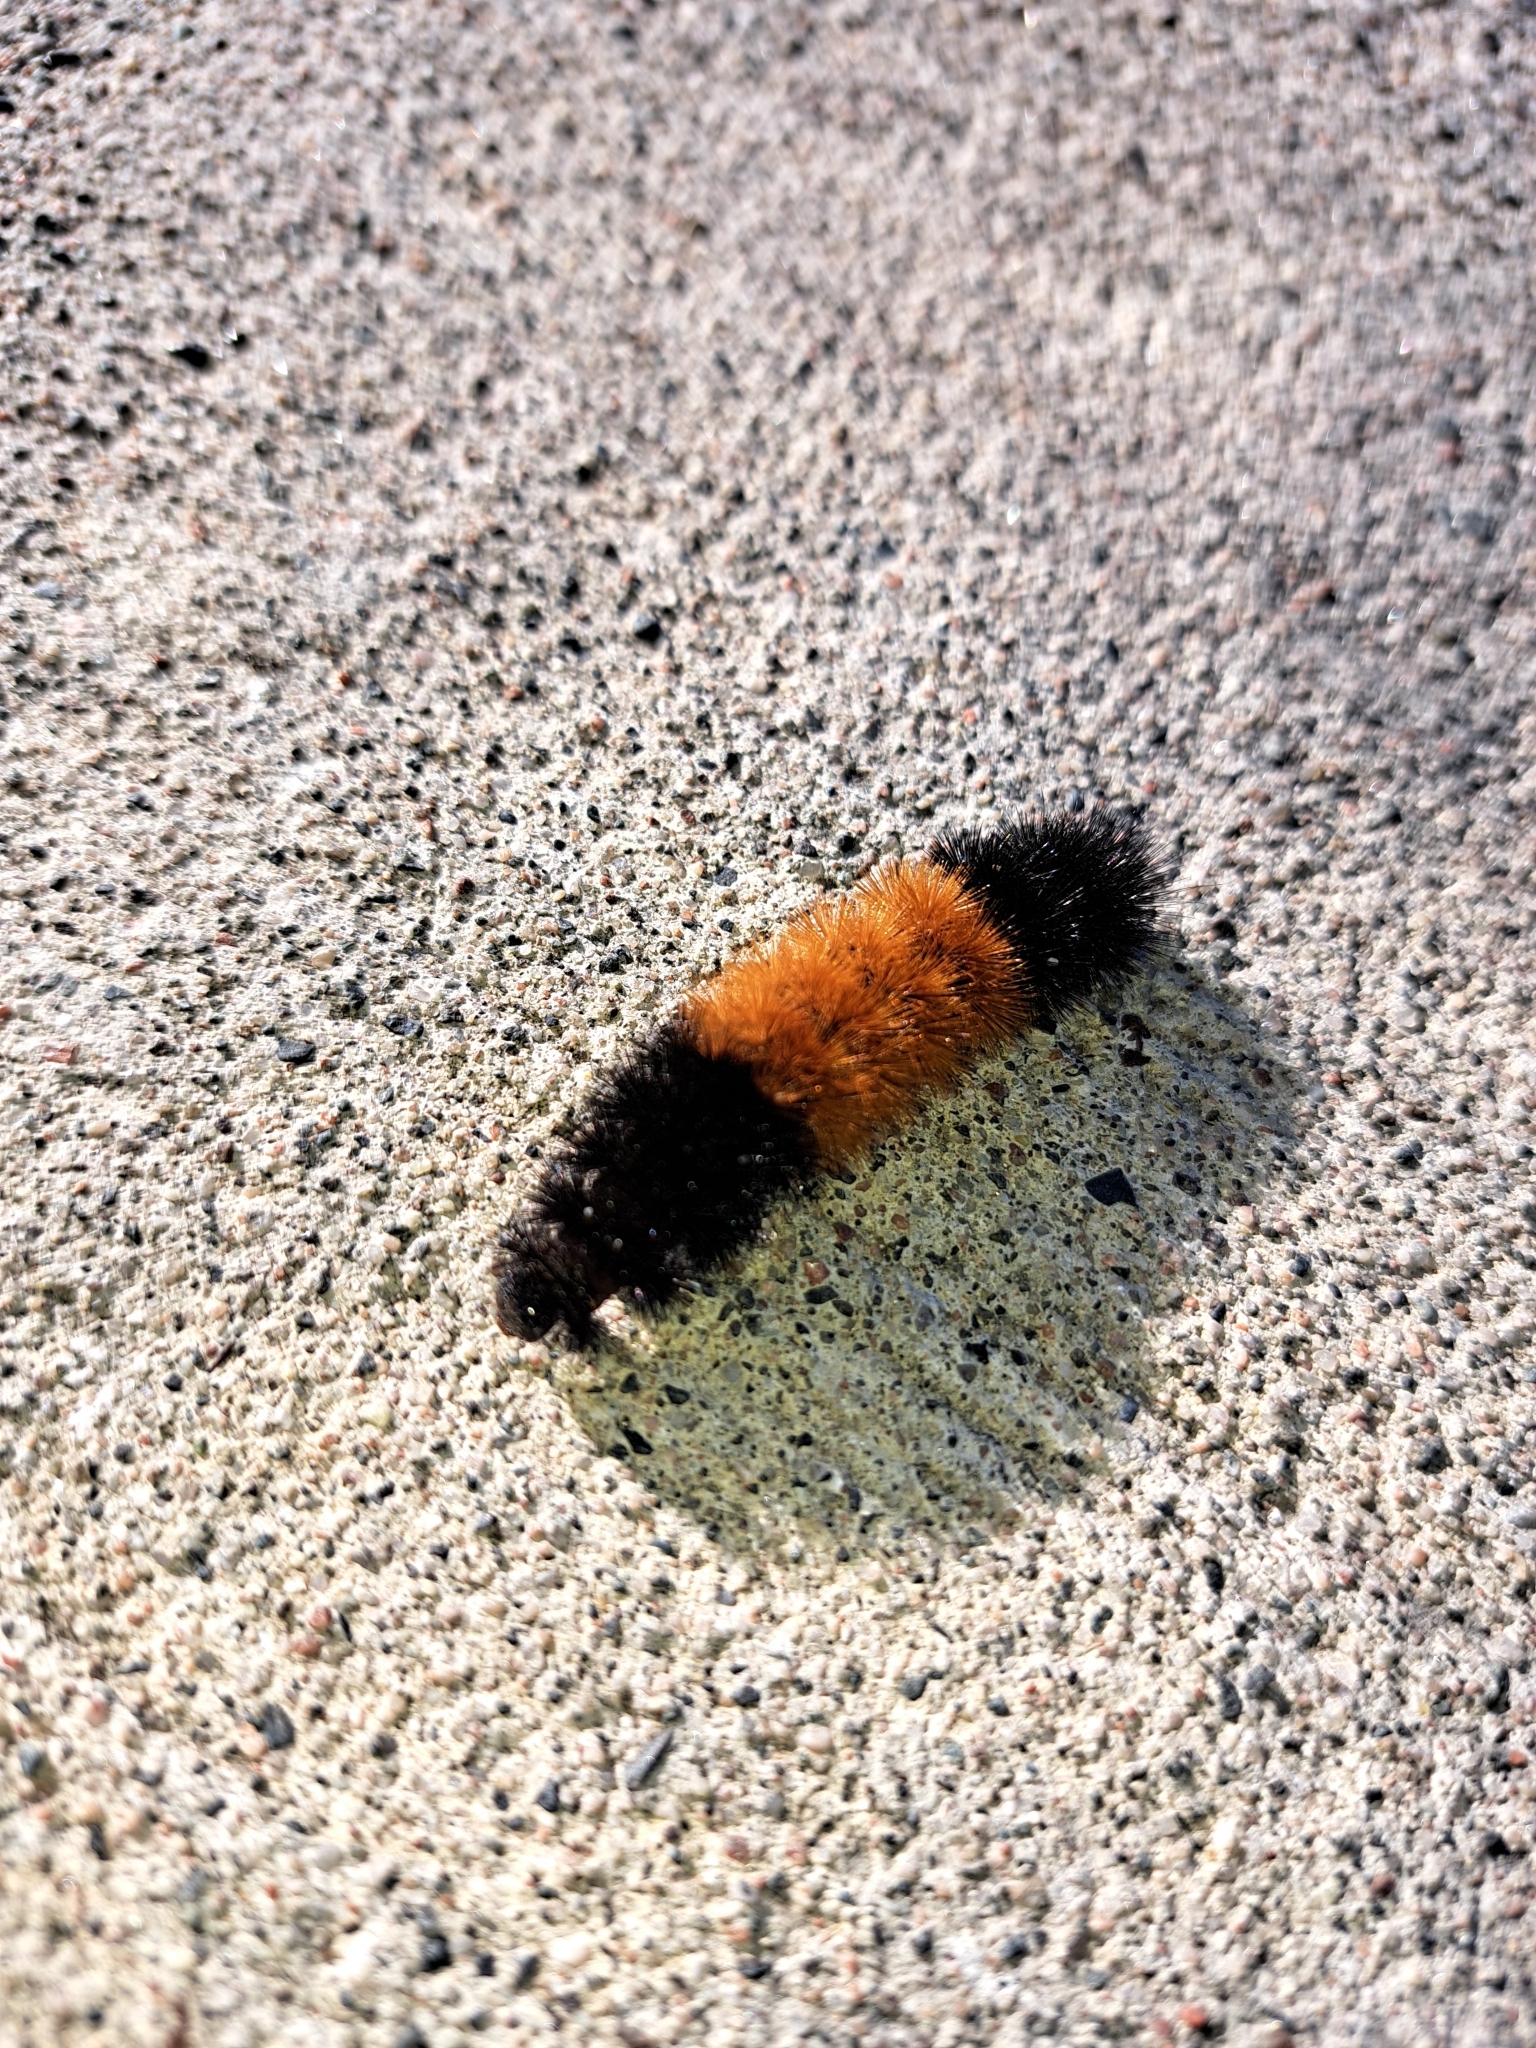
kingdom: Animalia
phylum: Arthropoda
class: Insecta
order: Lepidoptera
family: Erebidae
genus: Pyrrharctia
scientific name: Pyrrharctia isabella
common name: Isabella tiger moth
